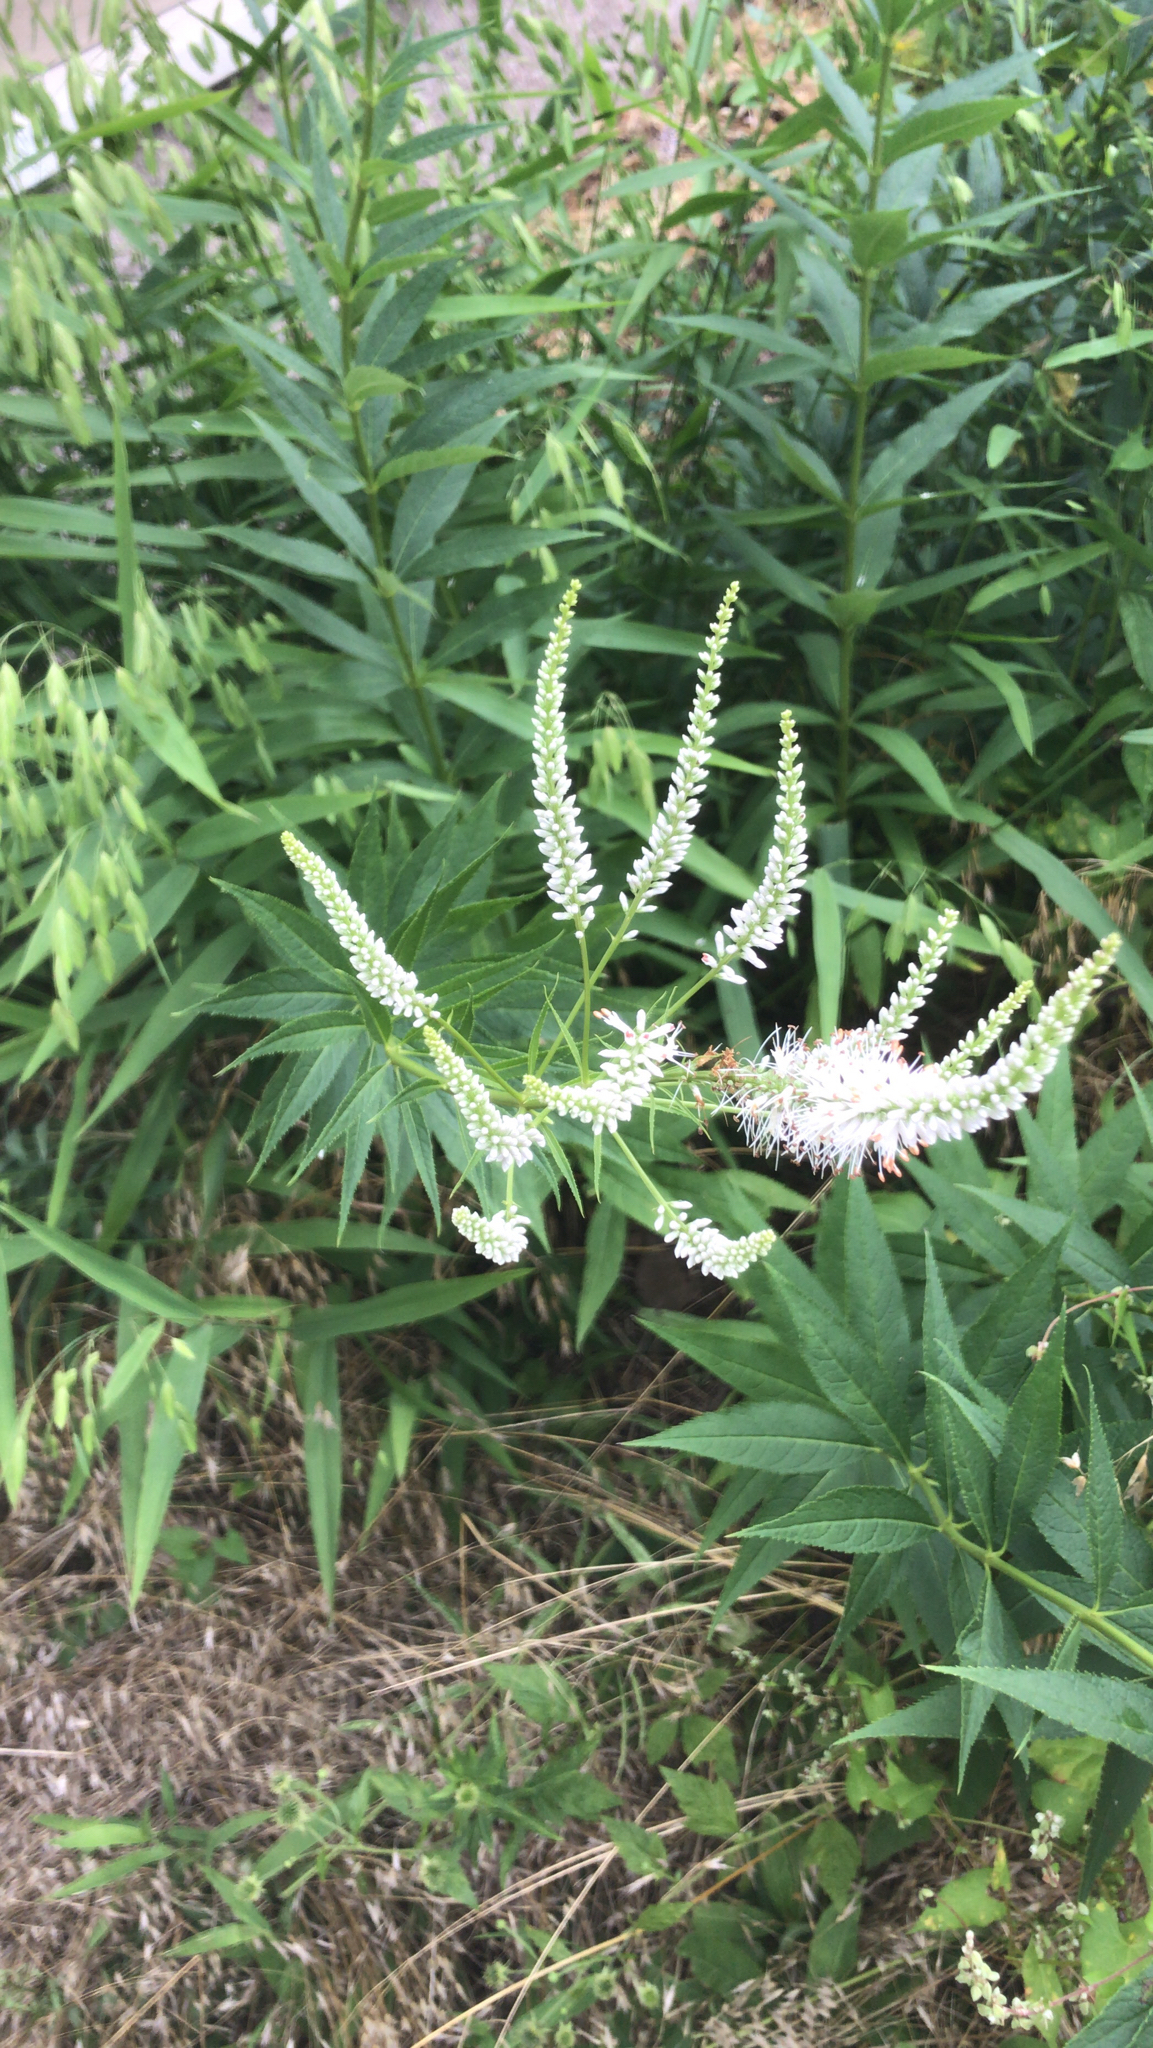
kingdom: Plantae
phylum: Tracheophyta
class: Magnoliopsida
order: Lamiales
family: Plantaginaceae
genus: Veronicastrum
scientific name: Veronicastrum virginicum
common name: Blackroot
